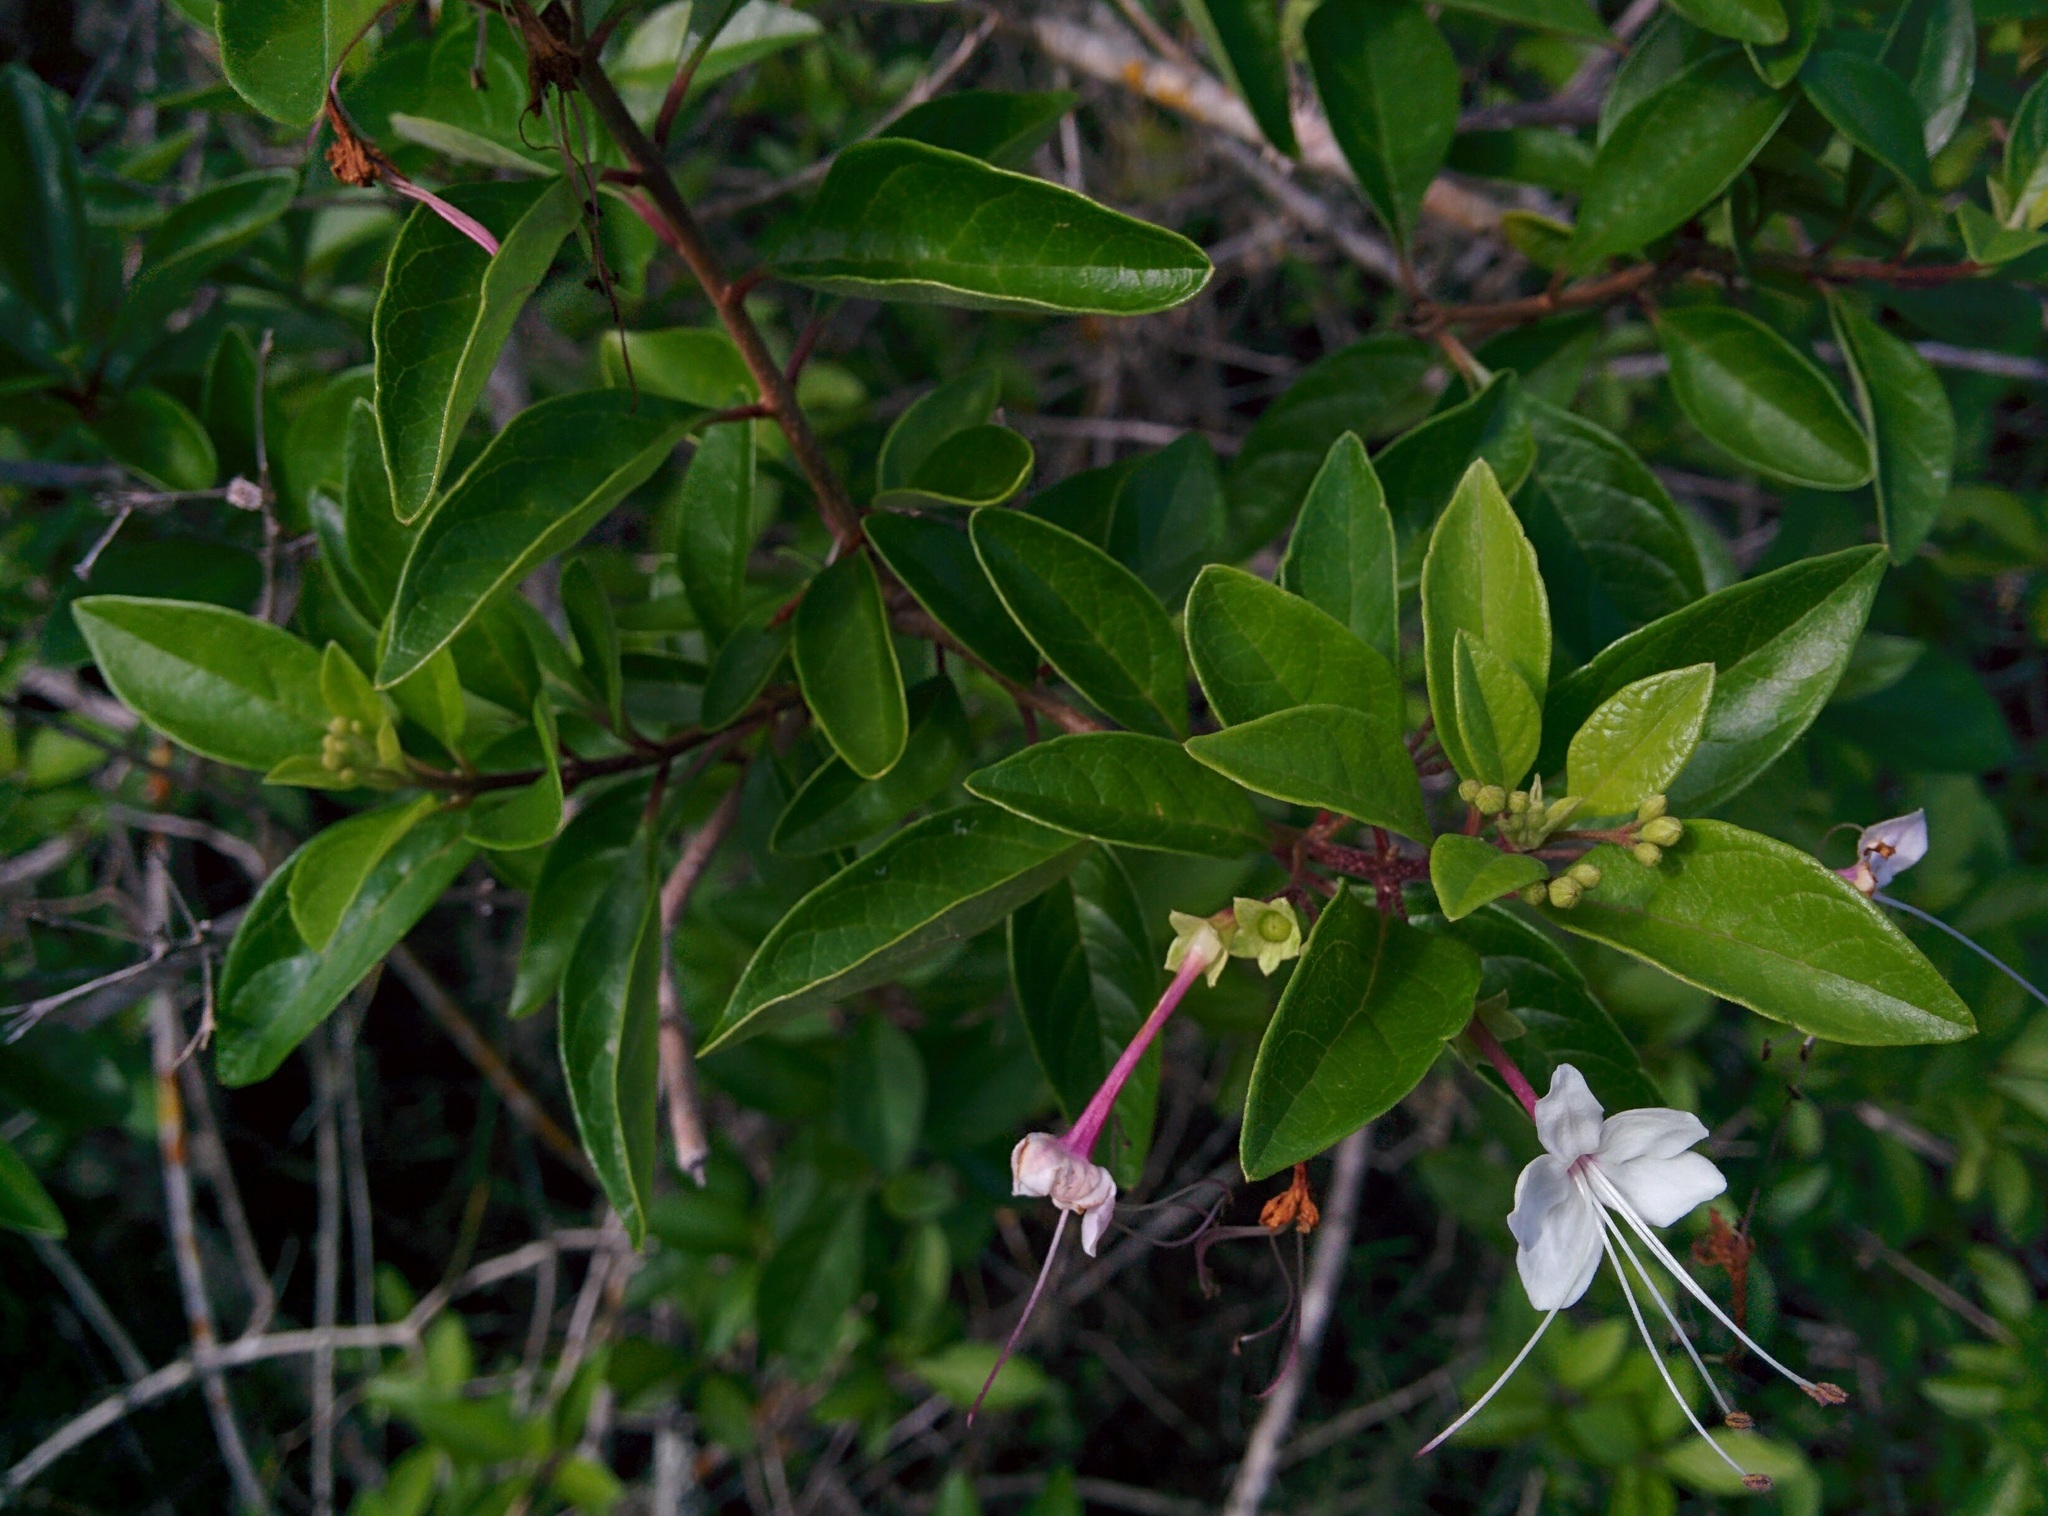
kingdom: Plantae
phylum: Tracheophyta
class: Magnoliopsida
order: Lamiales
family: Lamiaceae
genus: Volkameria
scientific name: Volkameria mollis
